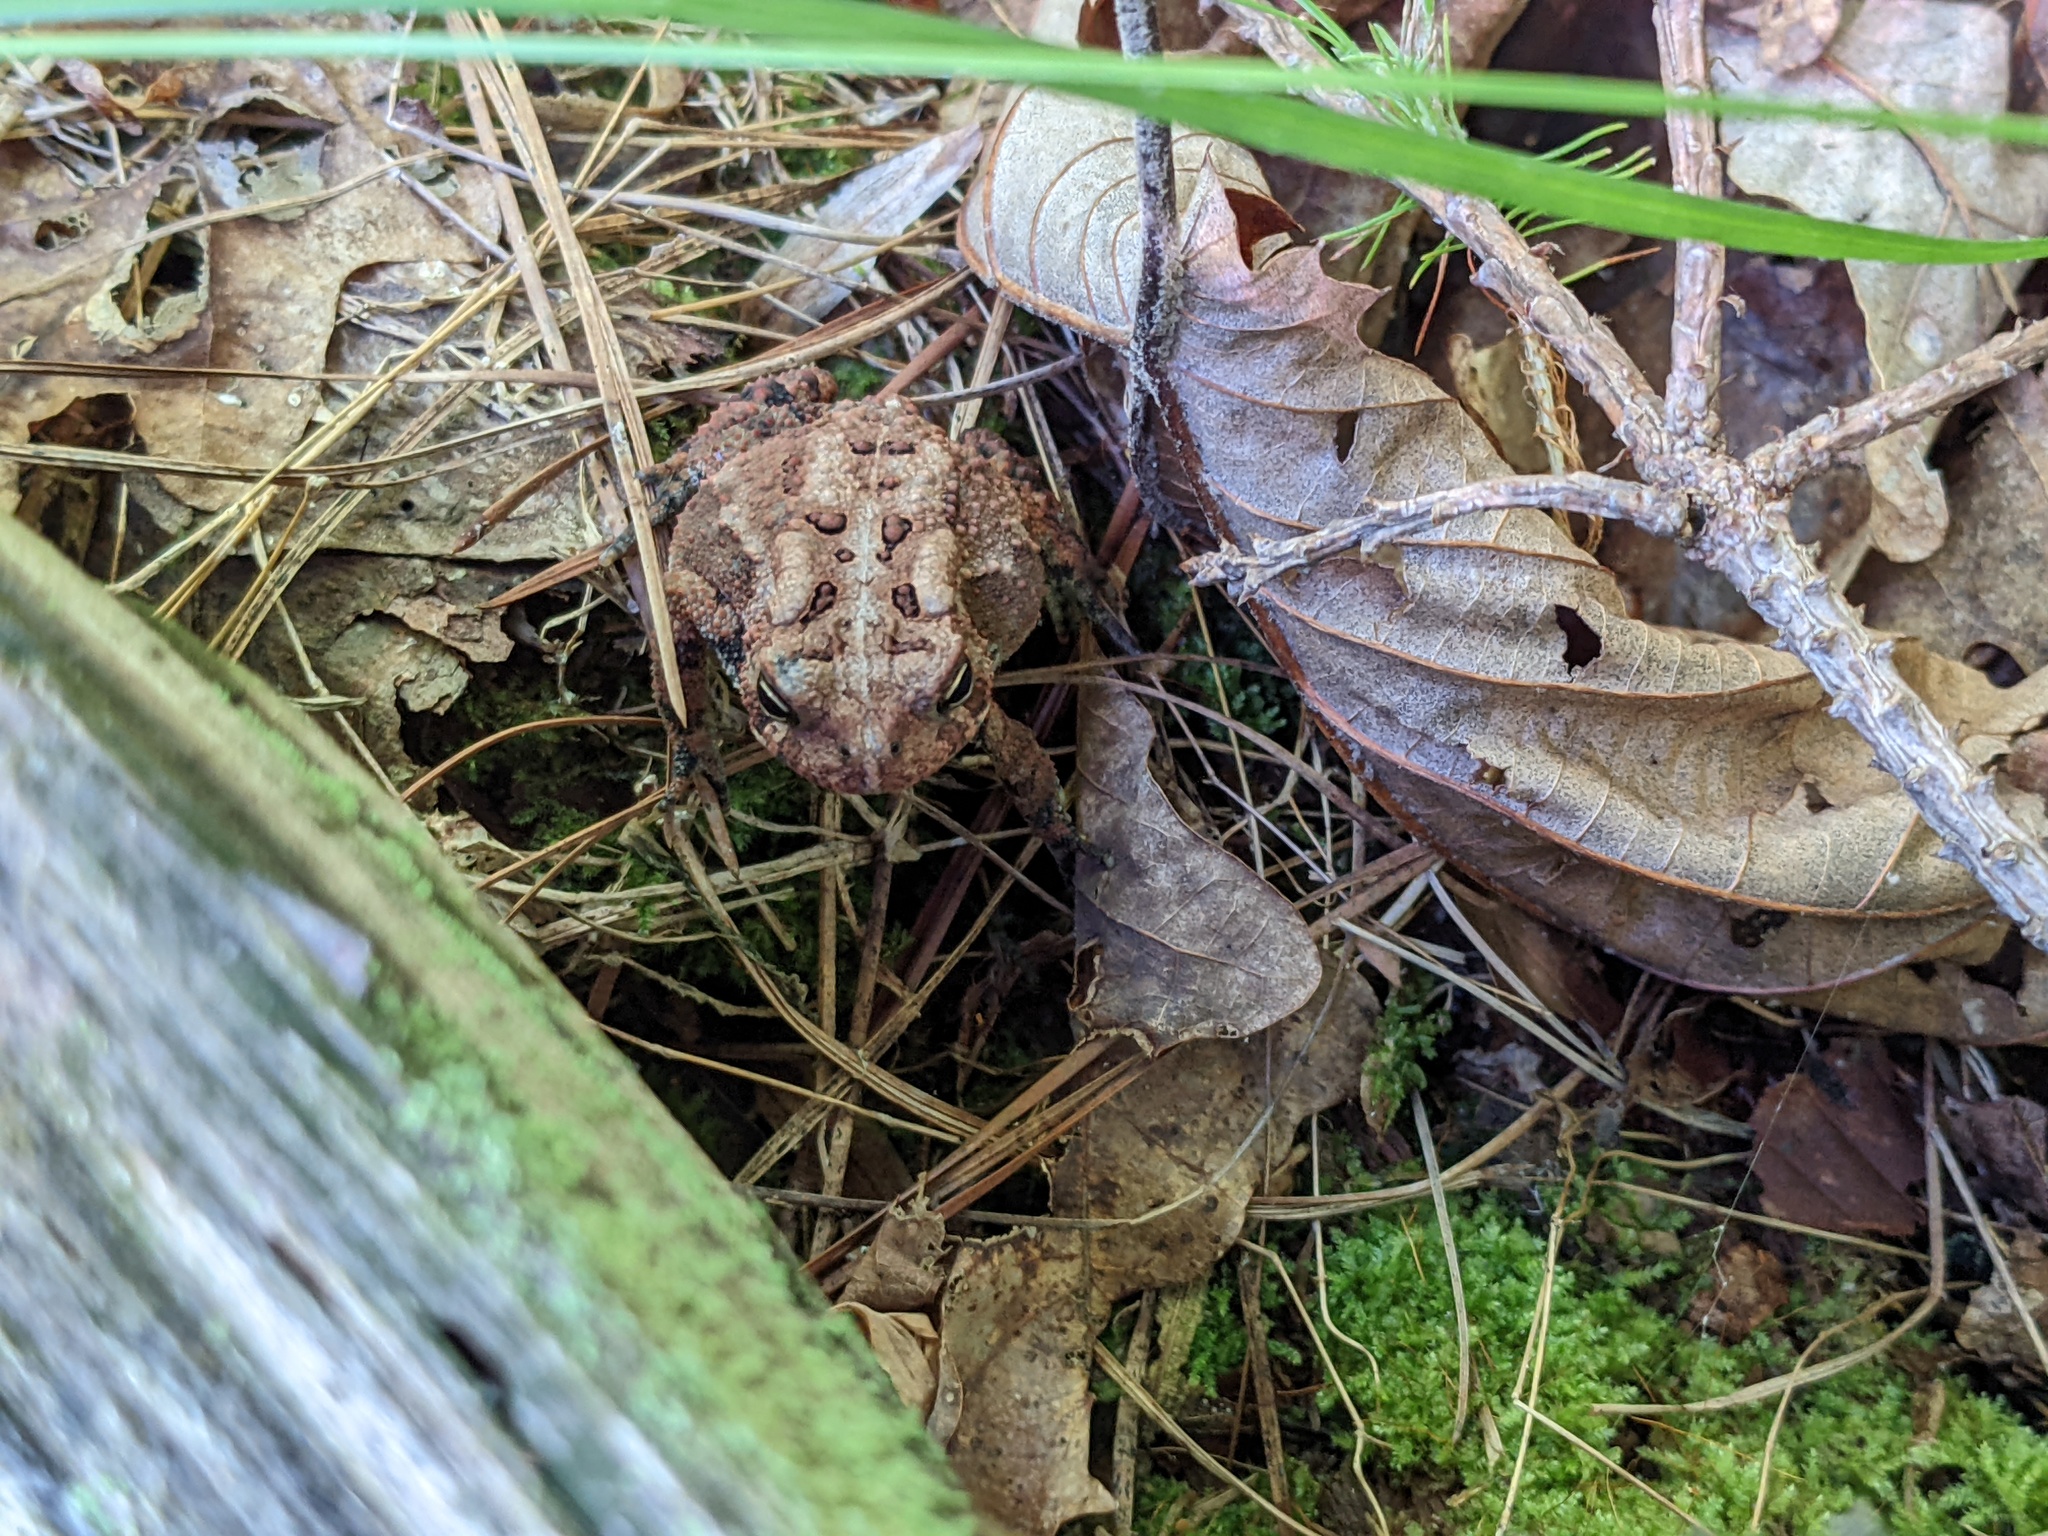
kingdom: Animalia
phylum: Chordata
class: Amphibia
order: Anura
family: Bufonidae
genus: Anaxyrus
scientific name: Anaxyrus americanus
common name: American toad
